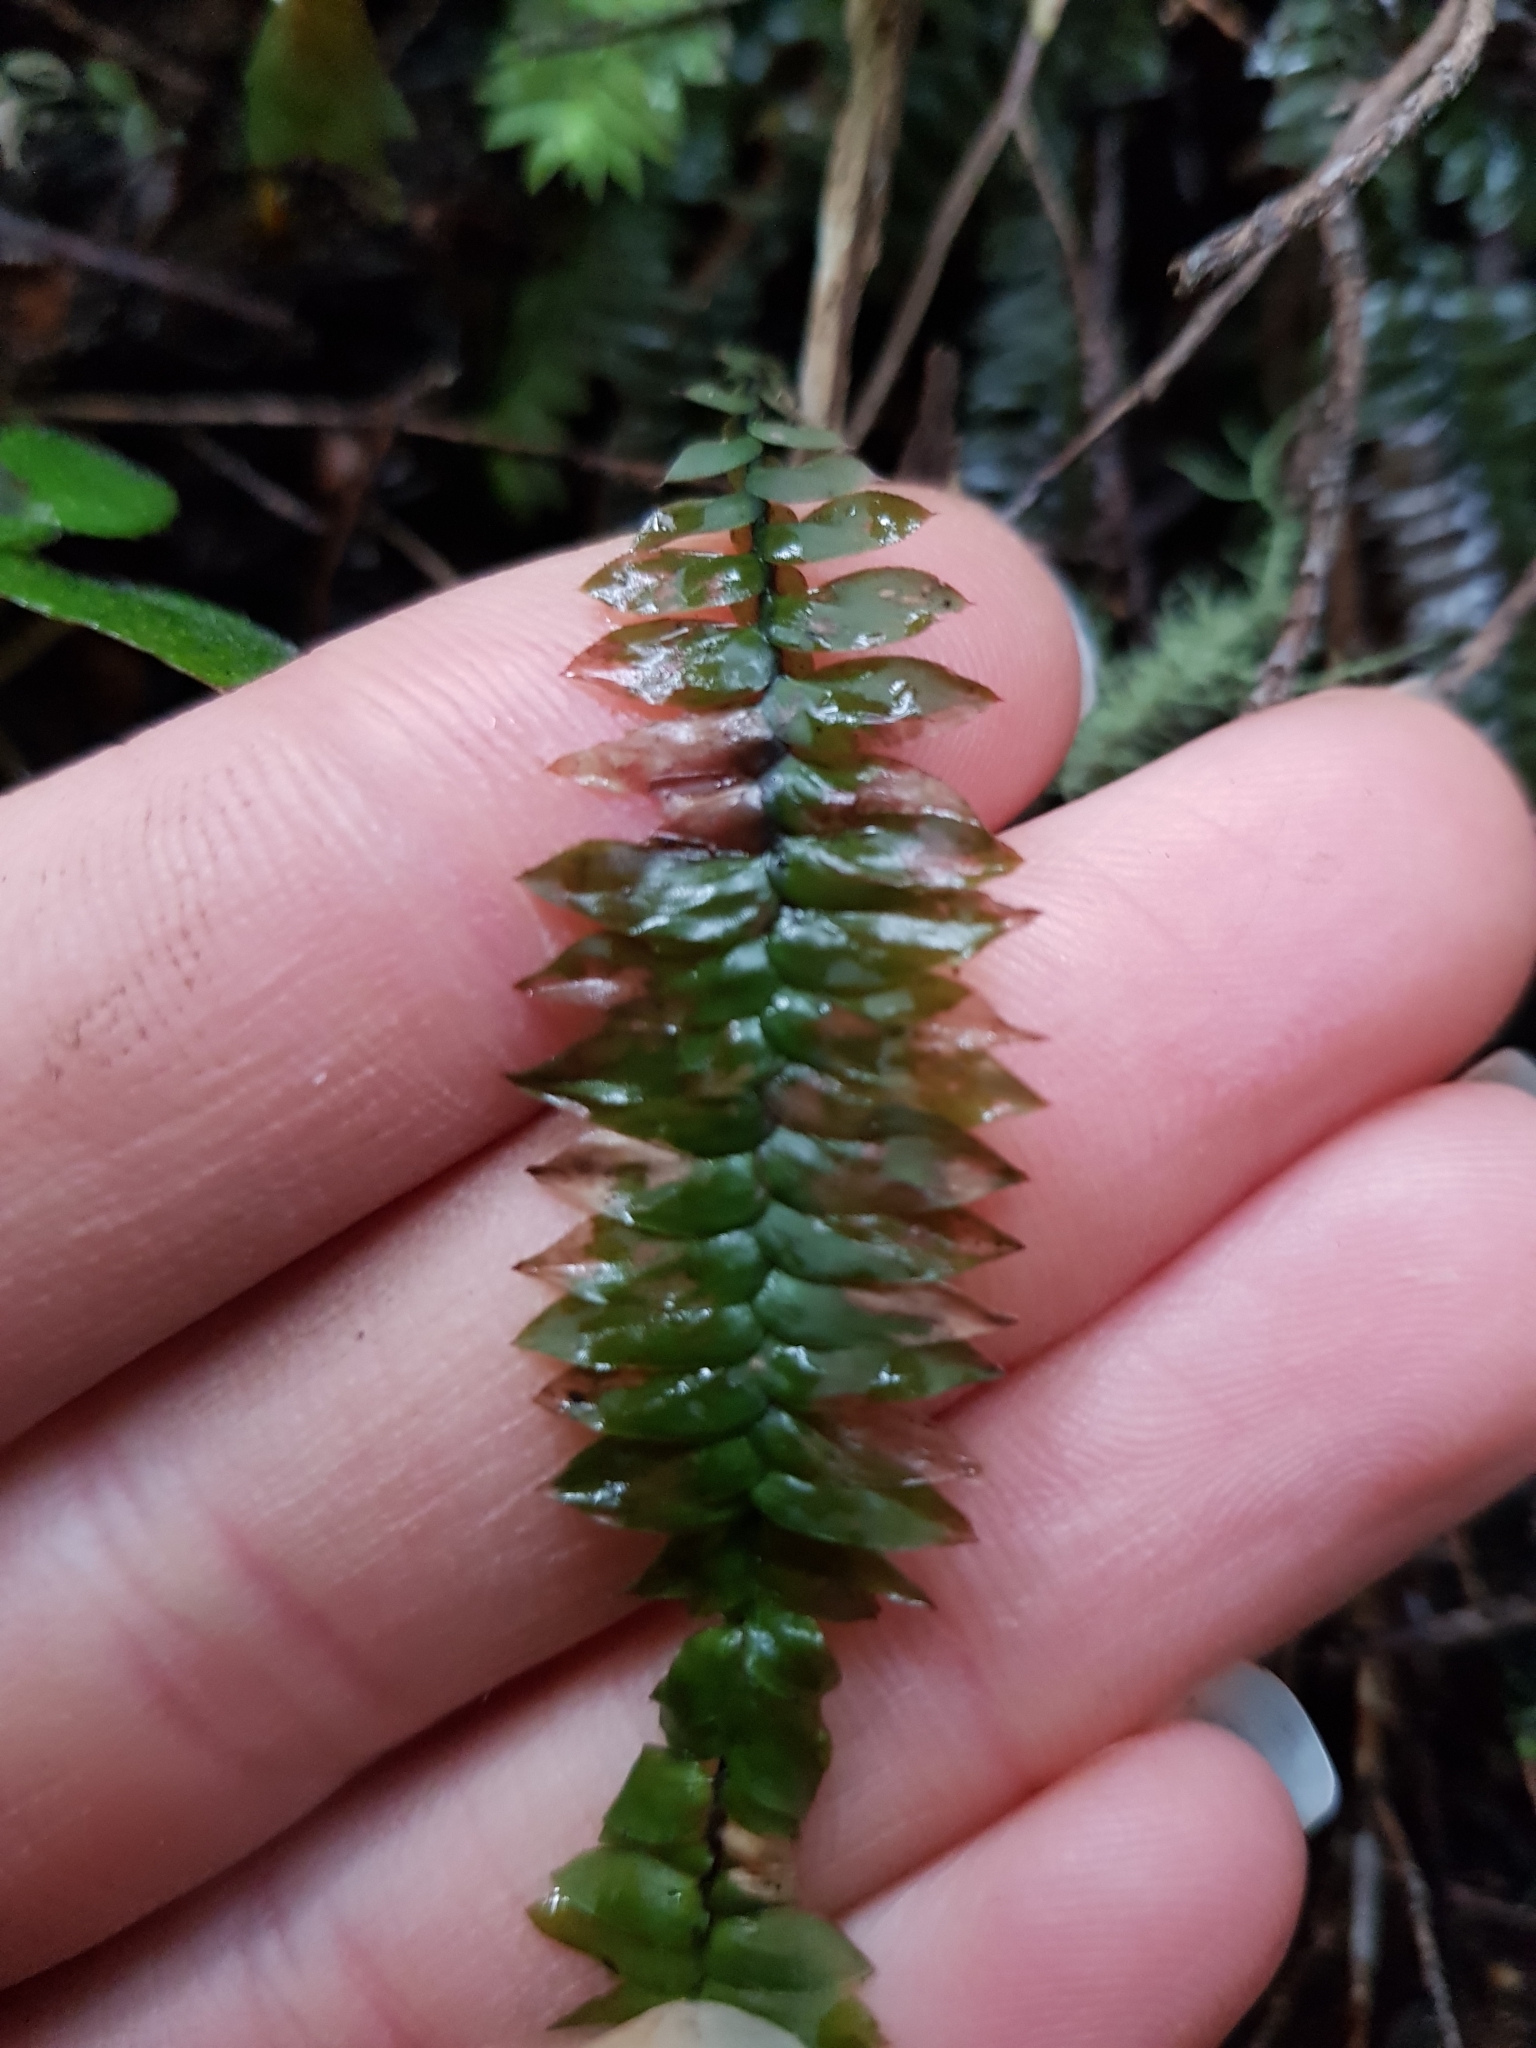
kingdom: Plantae
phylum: Bryophyta
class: Bryopsida
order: Hypopterygiales
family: Hypopterygiaceae
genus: Cyathophorum
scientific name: Cyathophorum bulbosum
